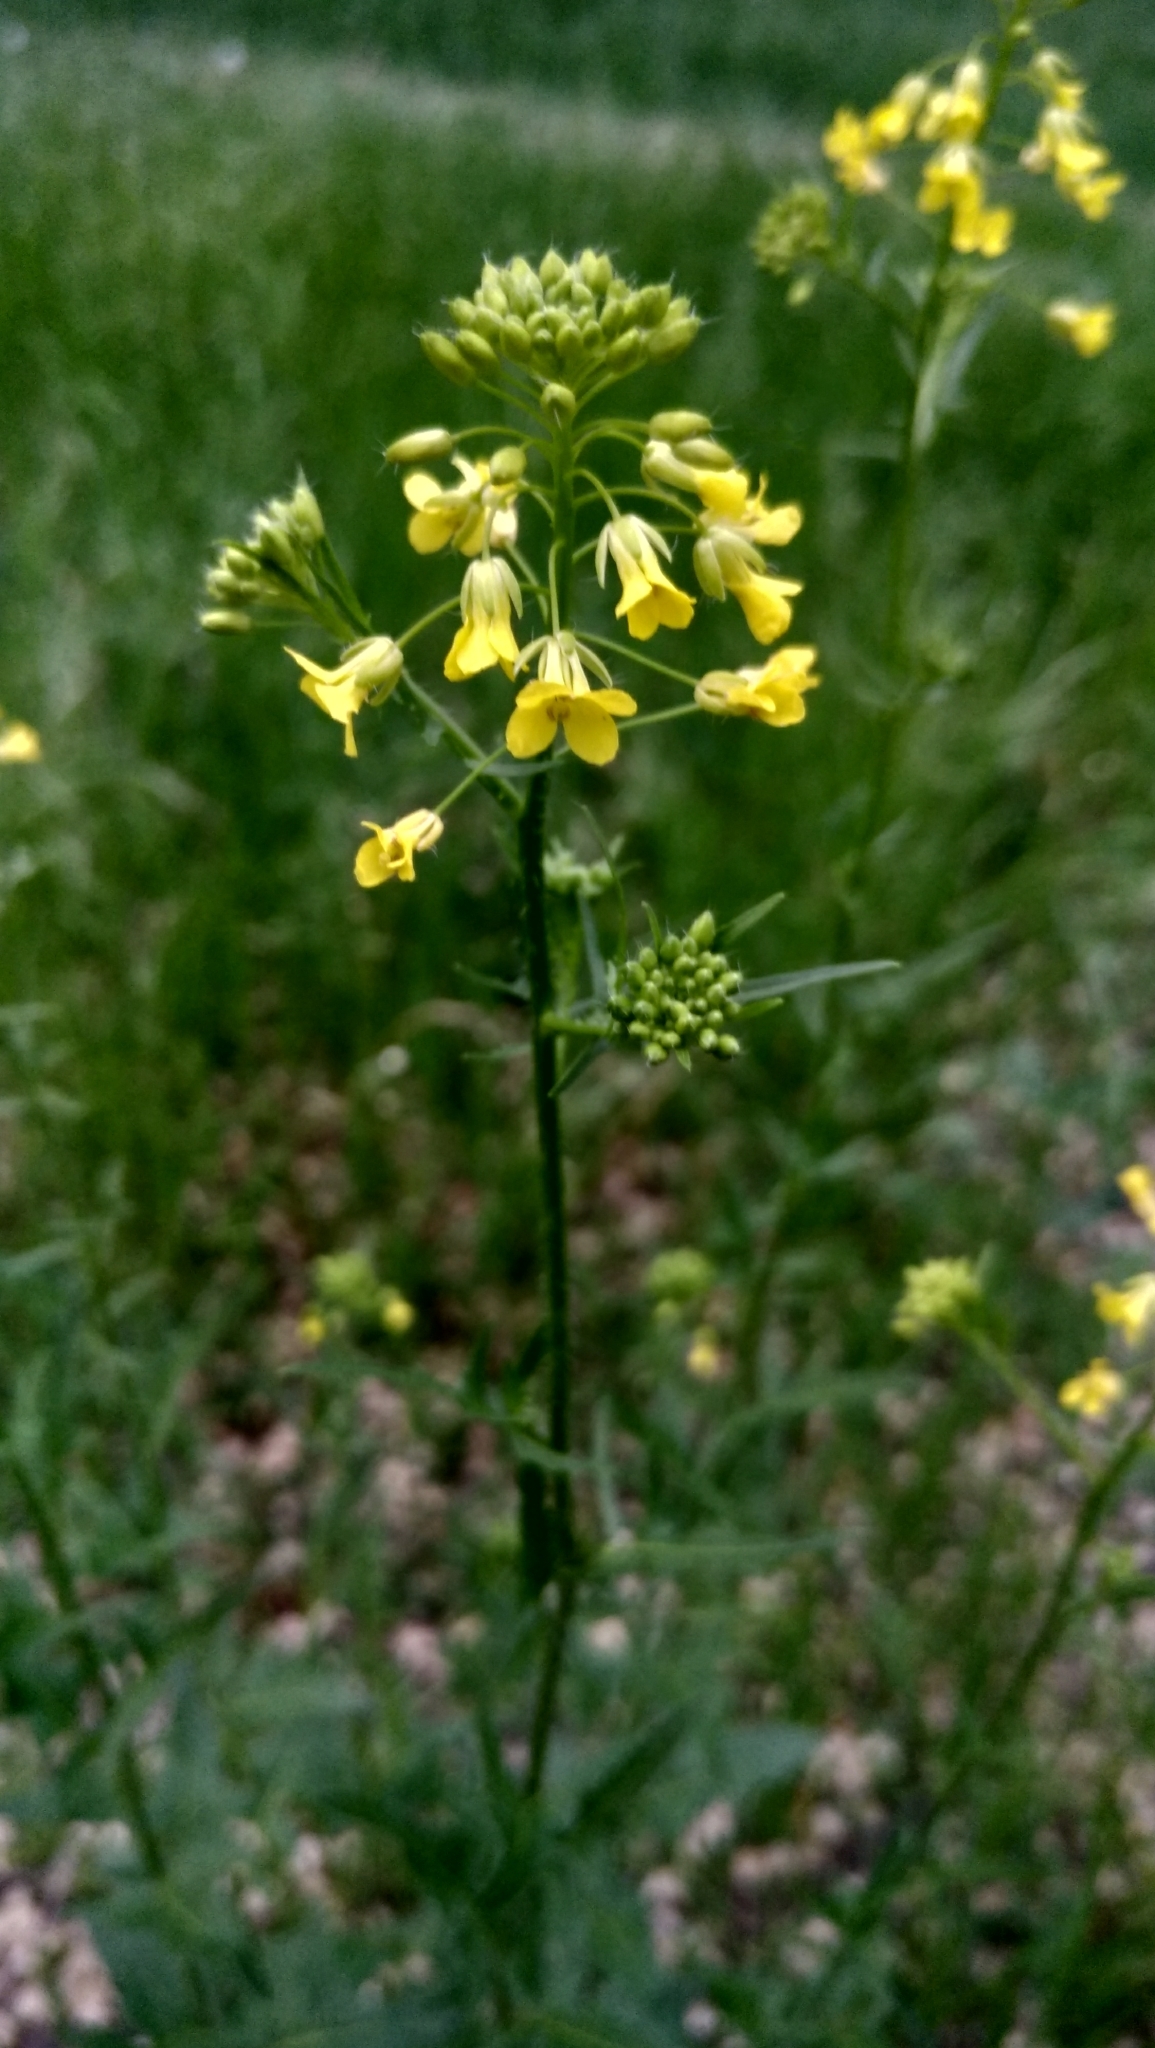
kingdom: Plantae
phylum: Tracheophyta
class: Magnoliopsida
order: Brassicales
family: Brassicaceae
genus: Sisymbrium
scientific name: Sisymbrium loeselii
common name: False london-rocket
